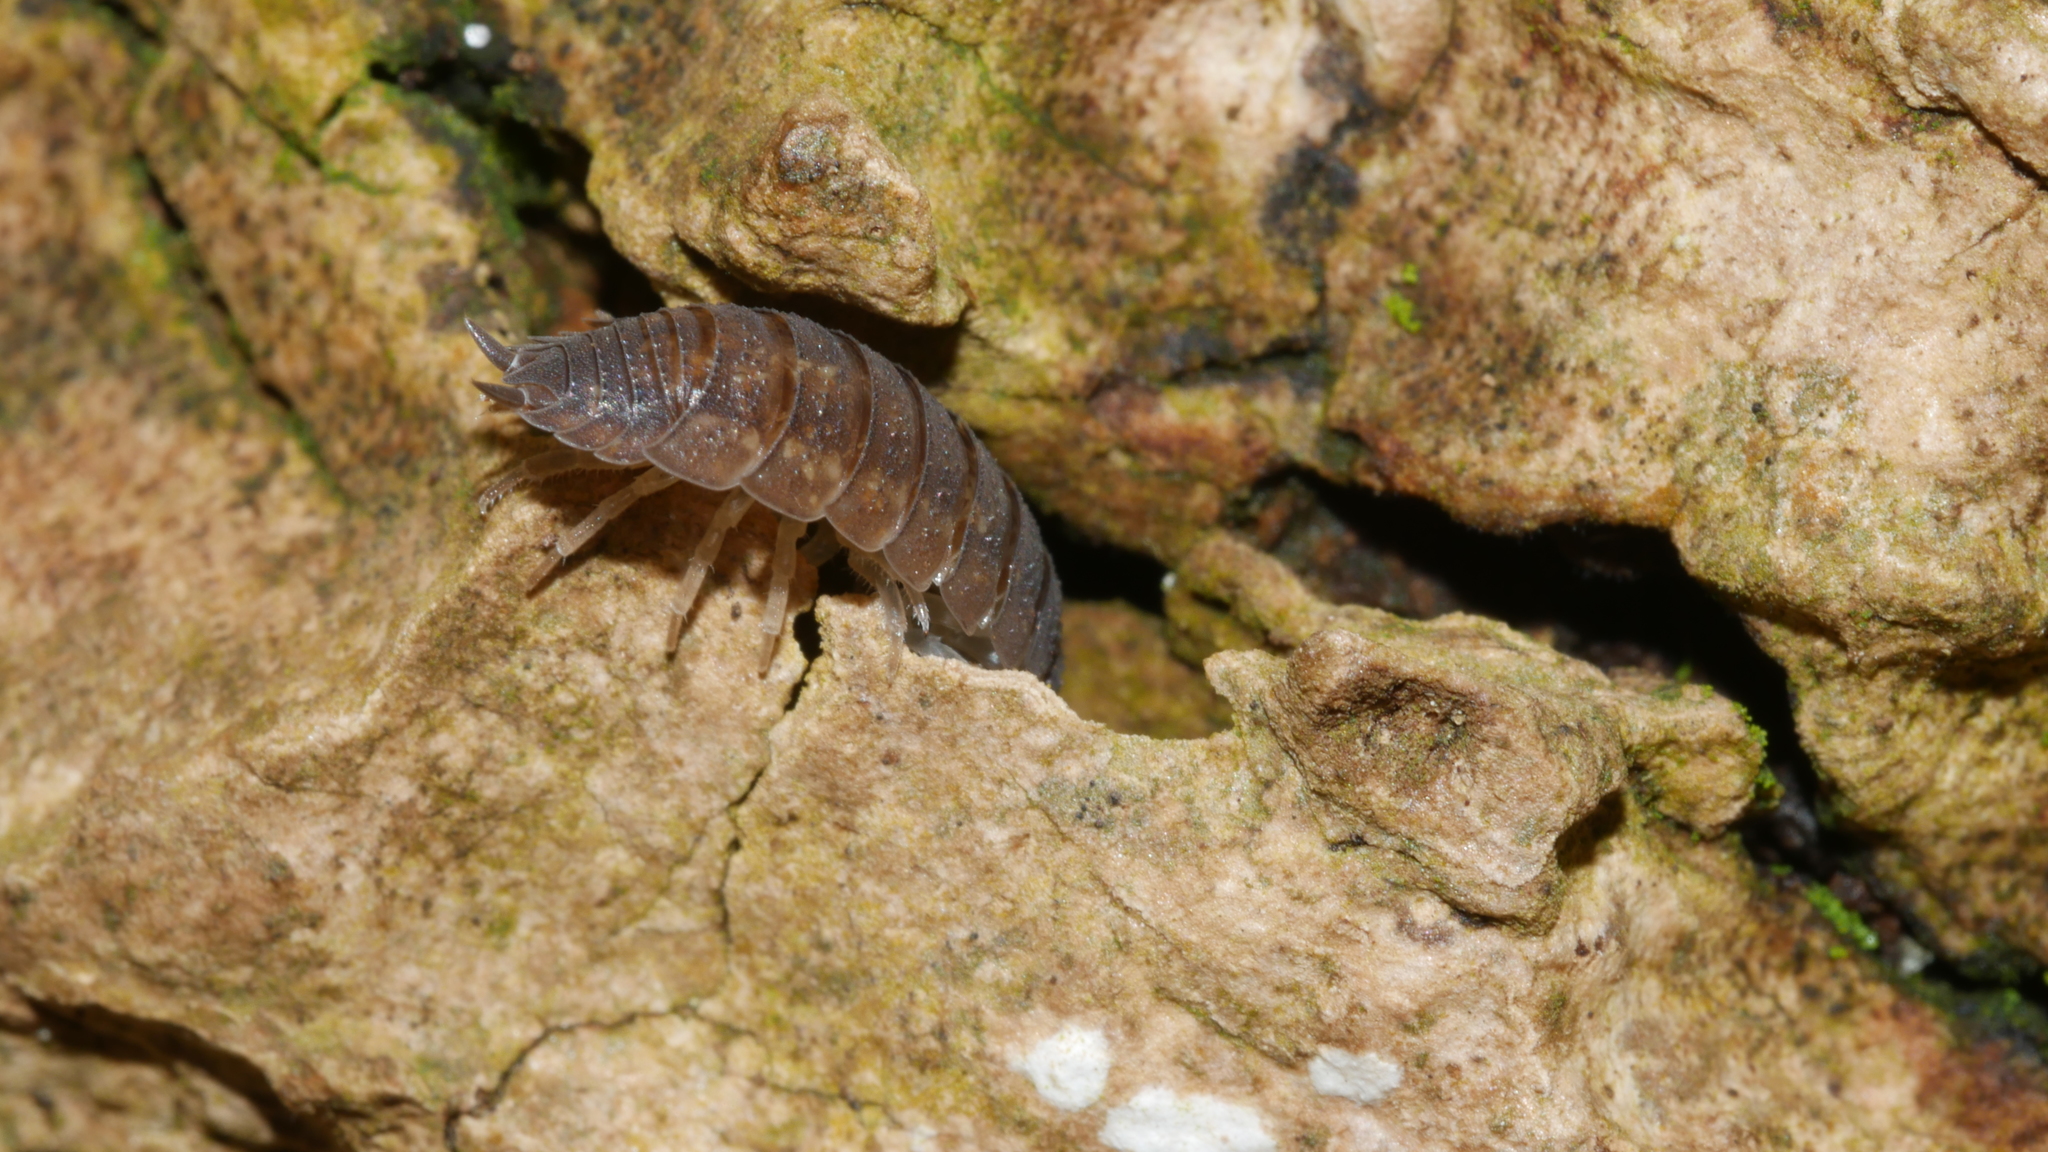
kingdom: Animalia
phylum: Arthropoda
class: Malacostraca
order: Isopoda
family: Porcellionidae
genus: Porcellio
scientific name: Porcellio scaber
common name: Common rough woodlouse
